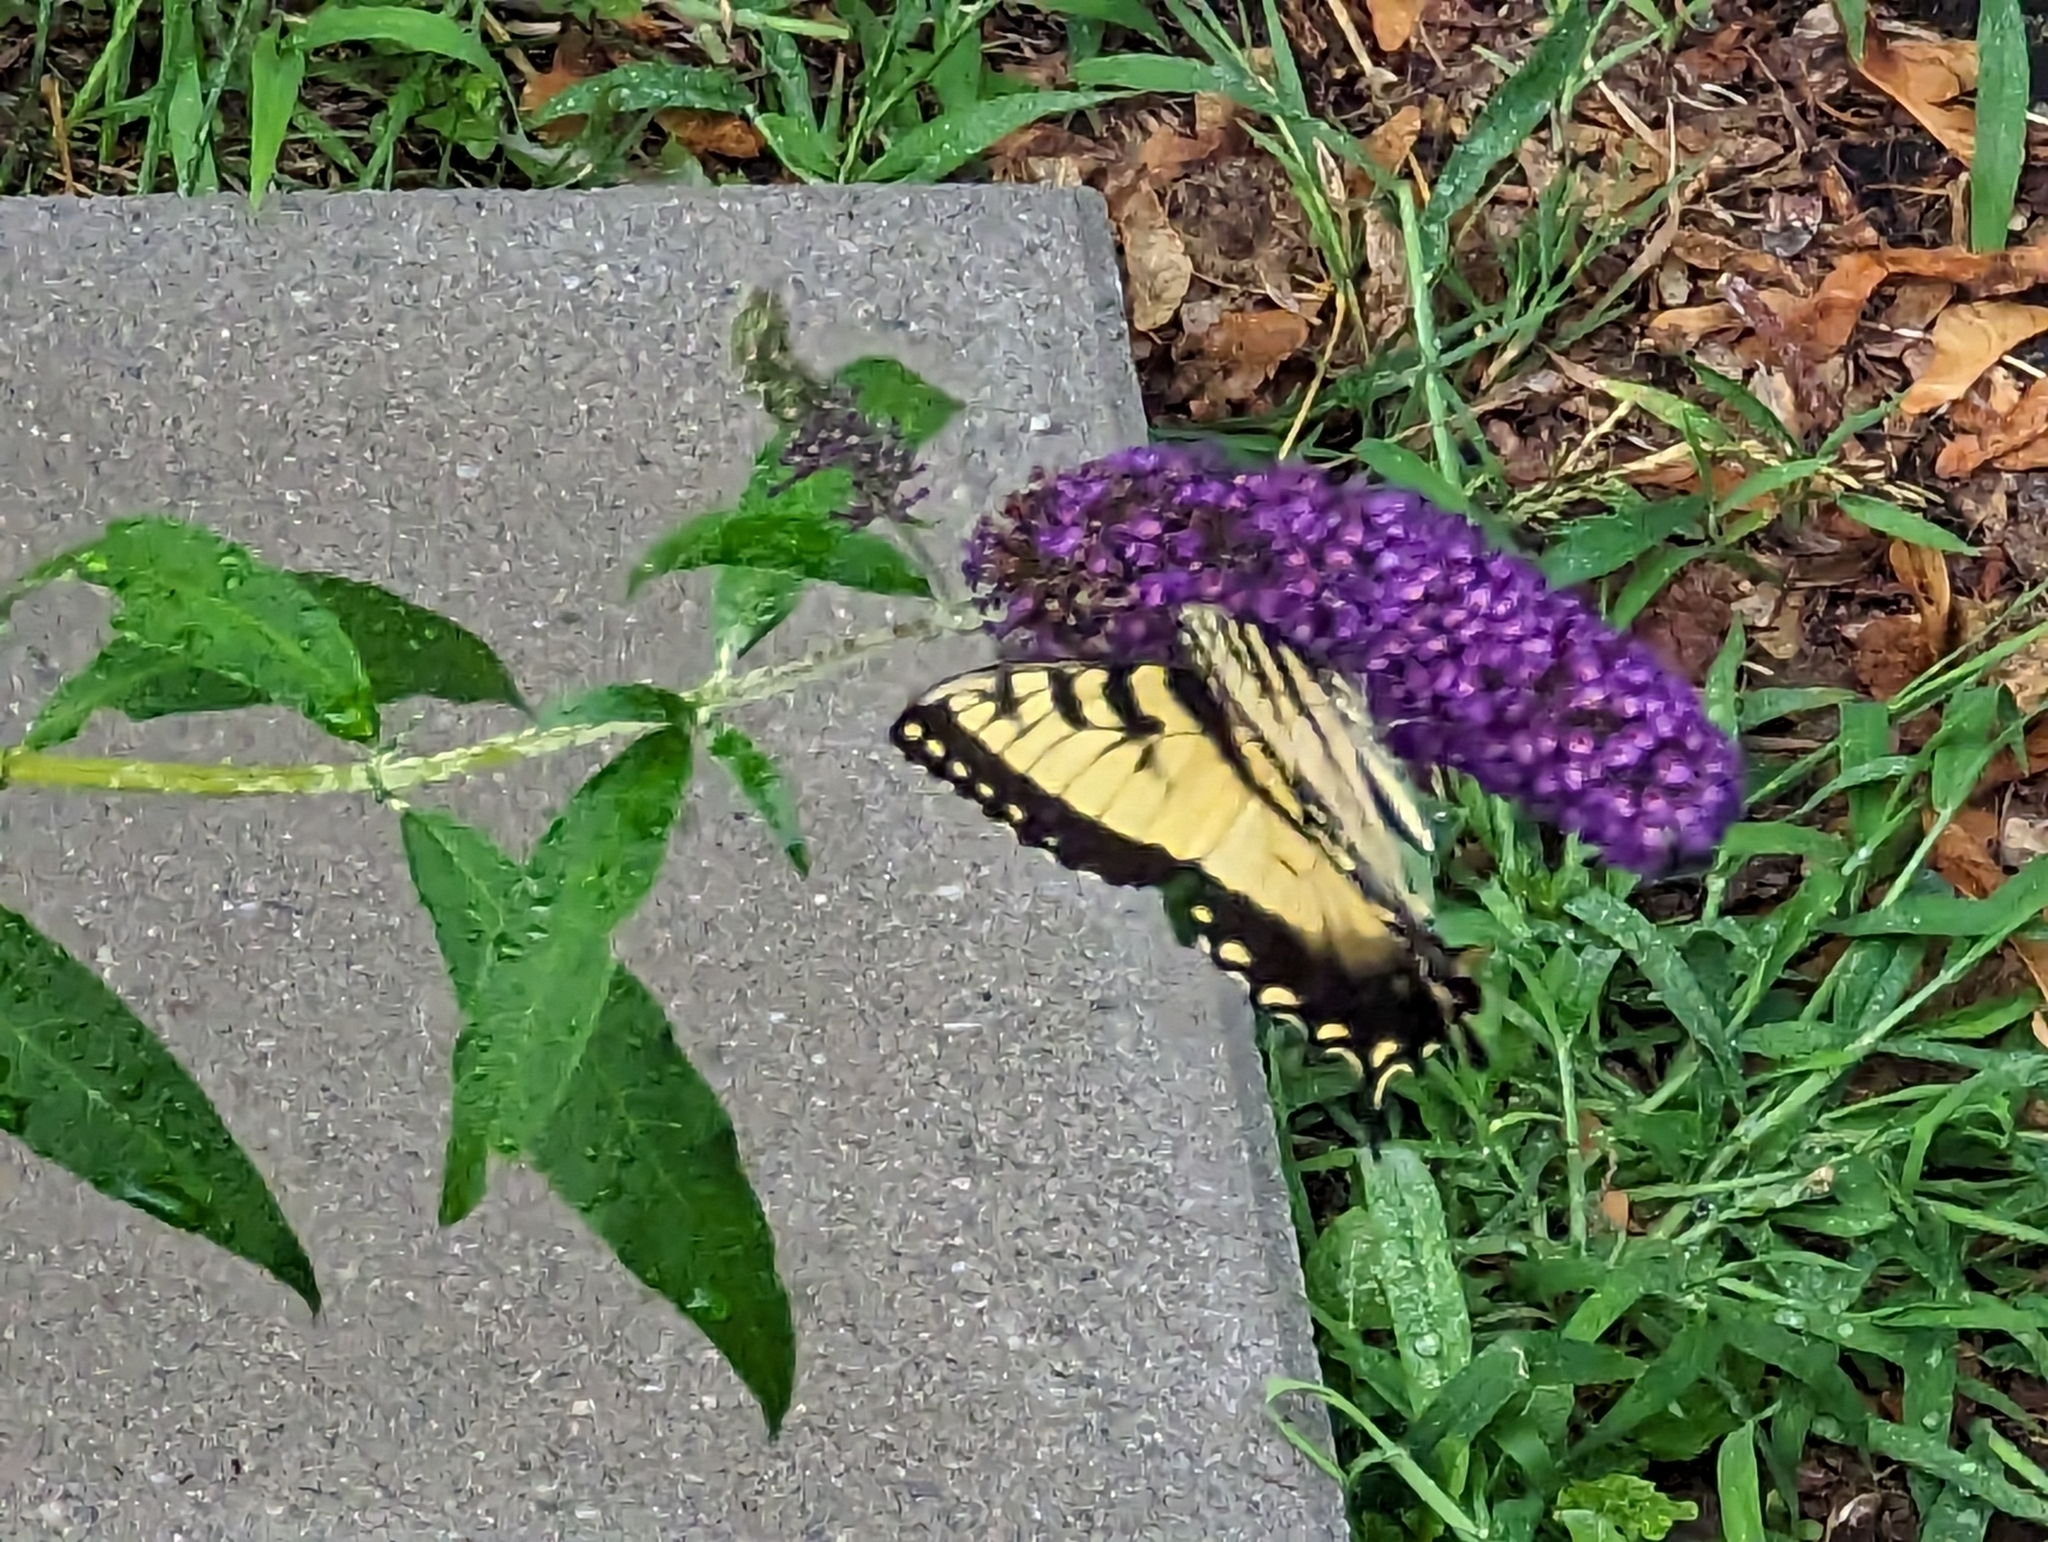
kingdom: Animalia
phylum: Arthropoda
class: Insecta
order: Lepidoptera
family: Papilionidae
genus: Papilio
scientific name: Papilio glaucus
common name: Tiger swallowtail
